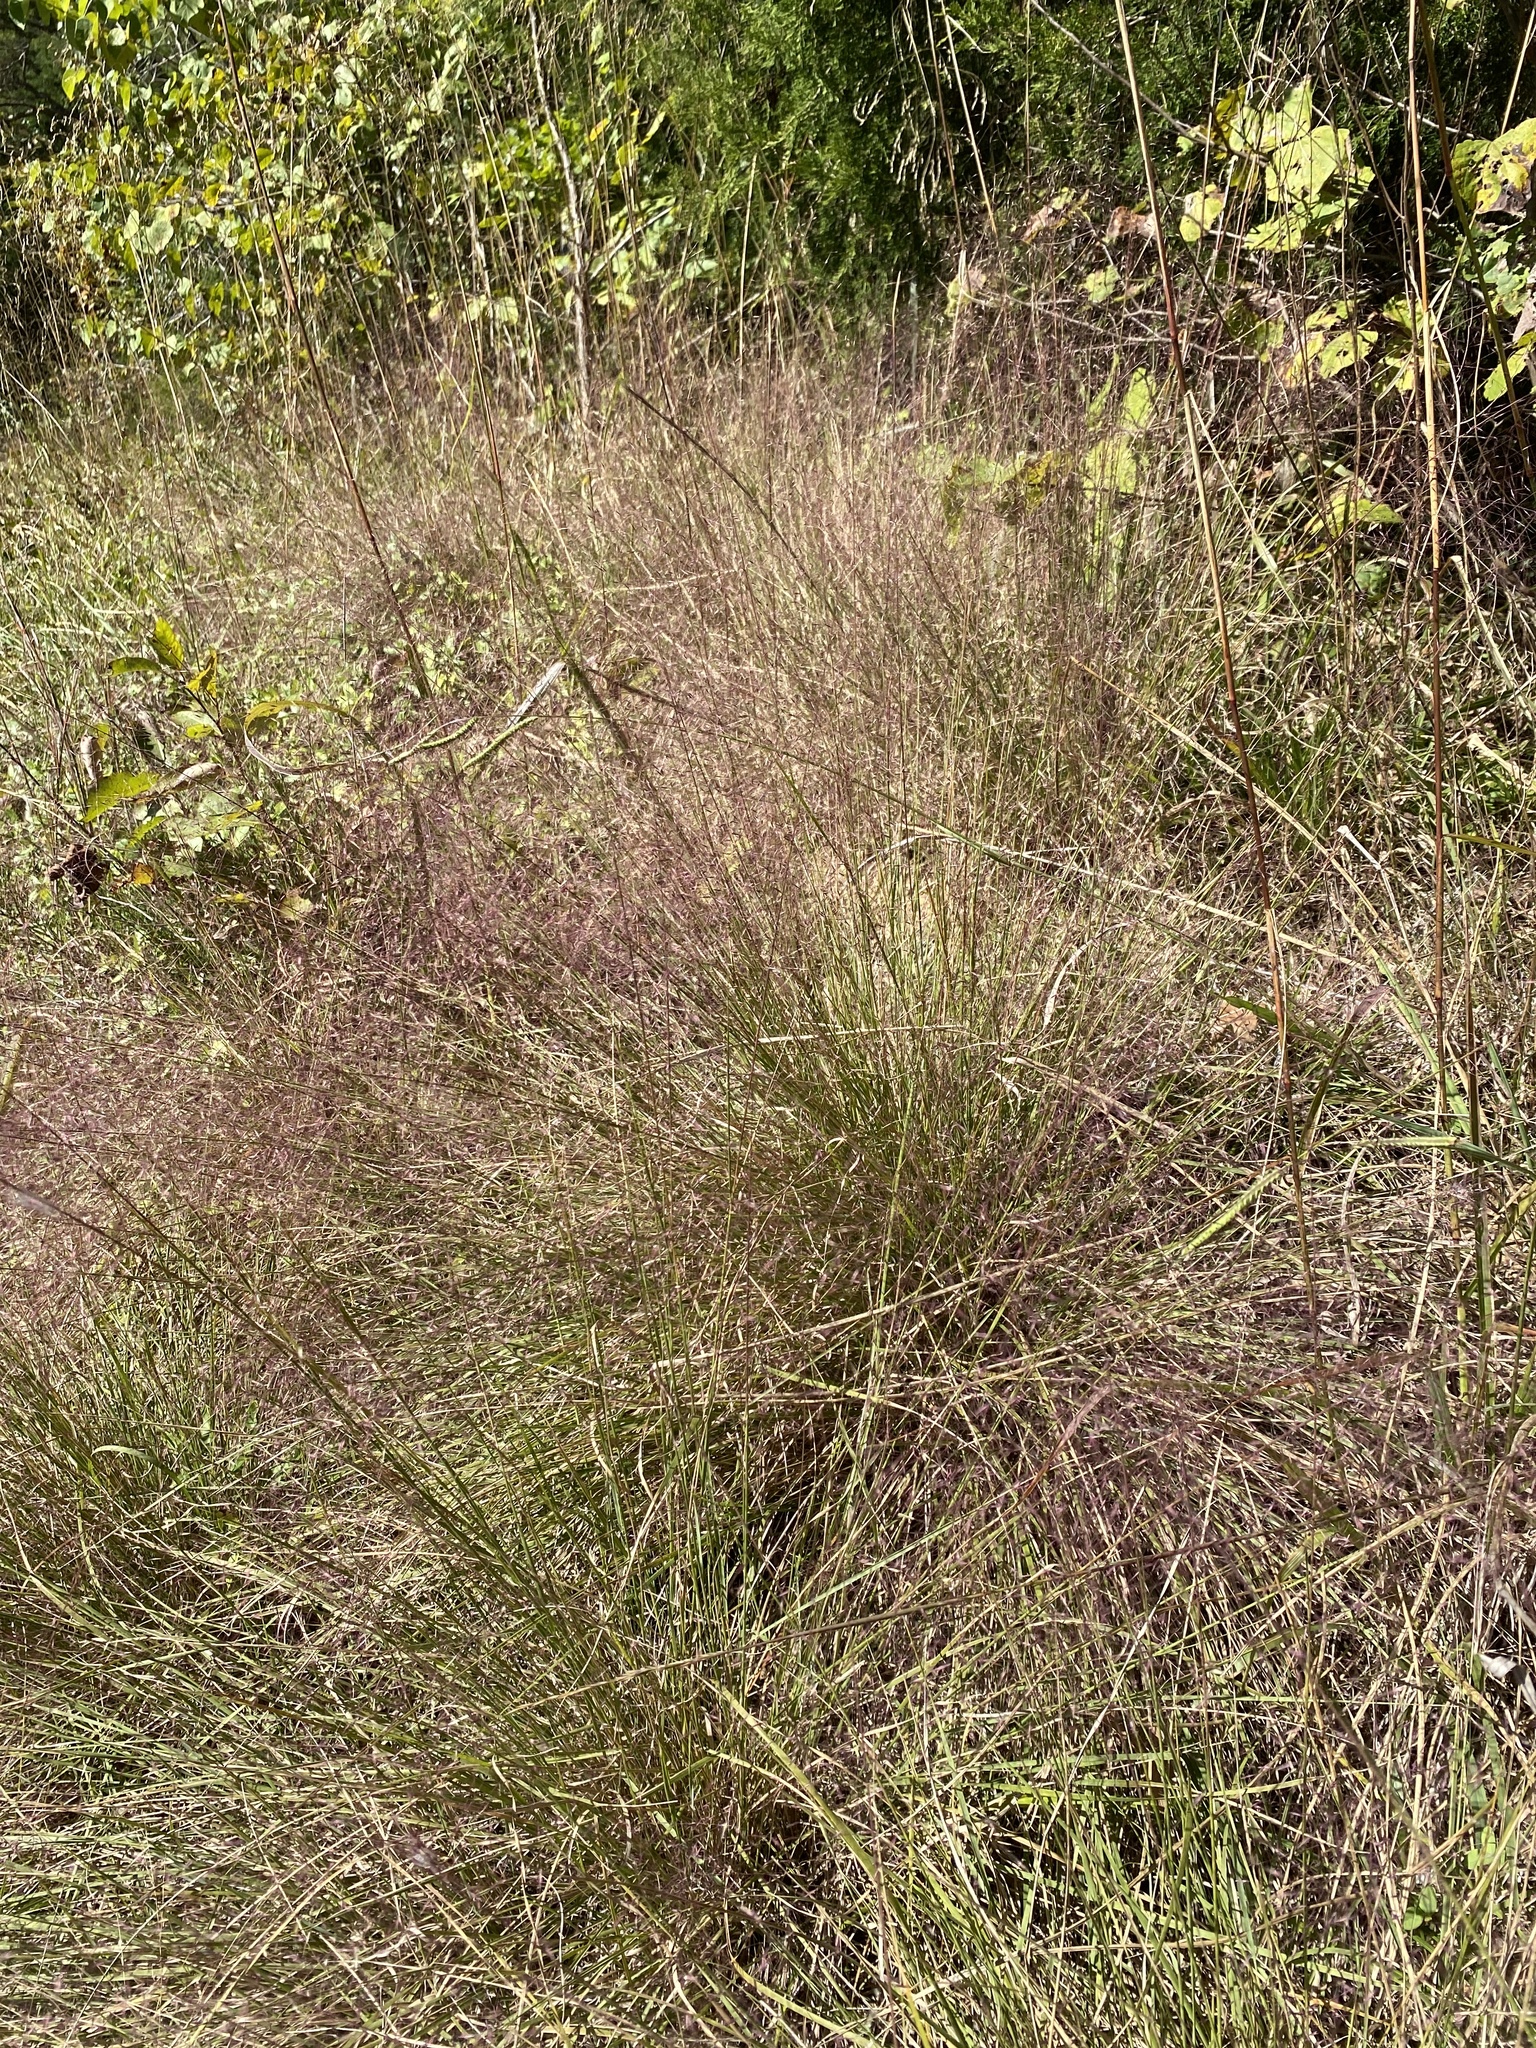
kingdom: Plantae
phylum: Tracheophyta
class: Liliopsida
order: Poales
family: Poaceae
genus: Muhlenbergia
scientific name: Muhlenbergia capillaris
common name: Purple grass
